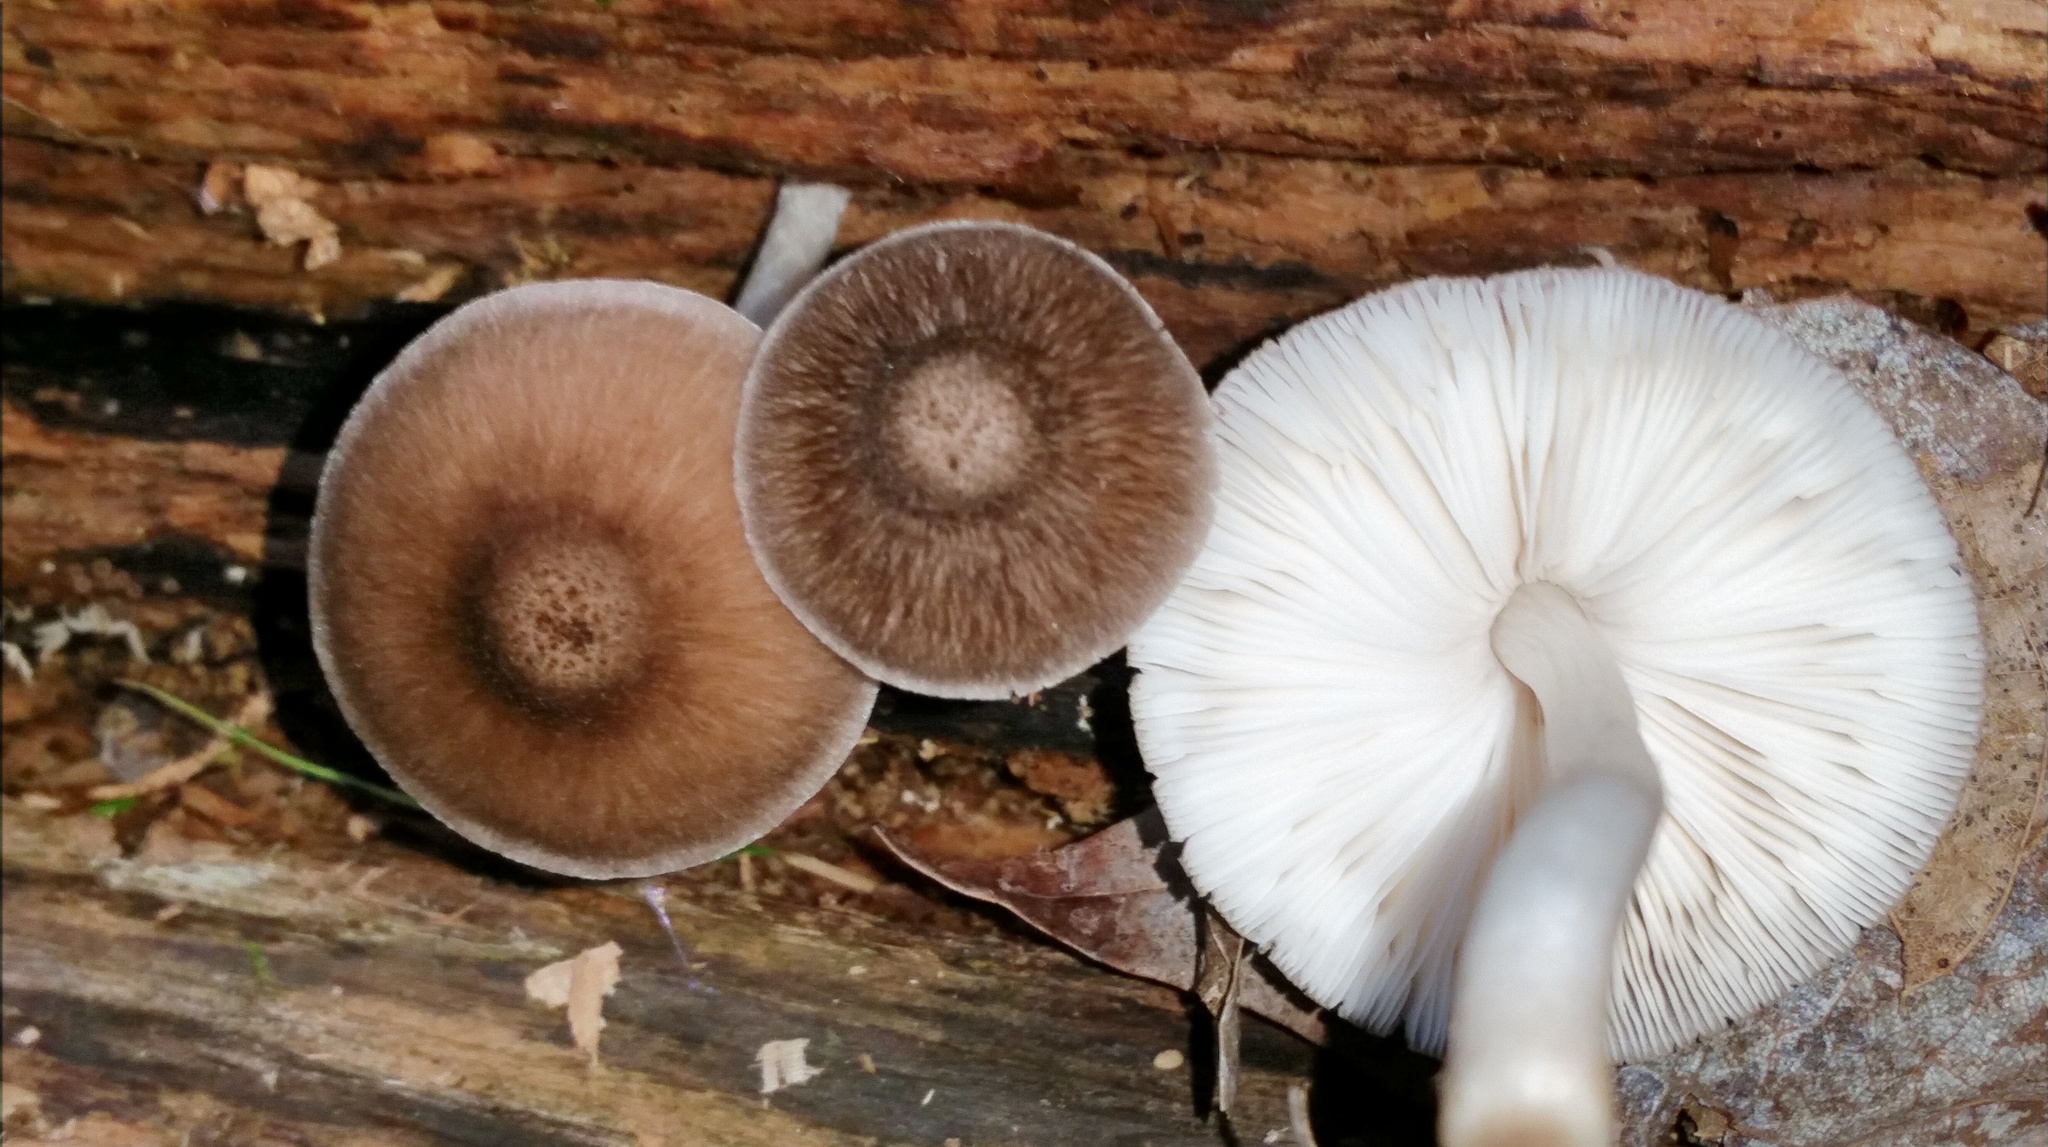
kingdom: Fungi
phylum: Basidiomycota
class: Agaricomycetes
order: Agaricales
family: Pluteaceae
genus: Pluteus
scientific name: Pluteus septocystidiatus
